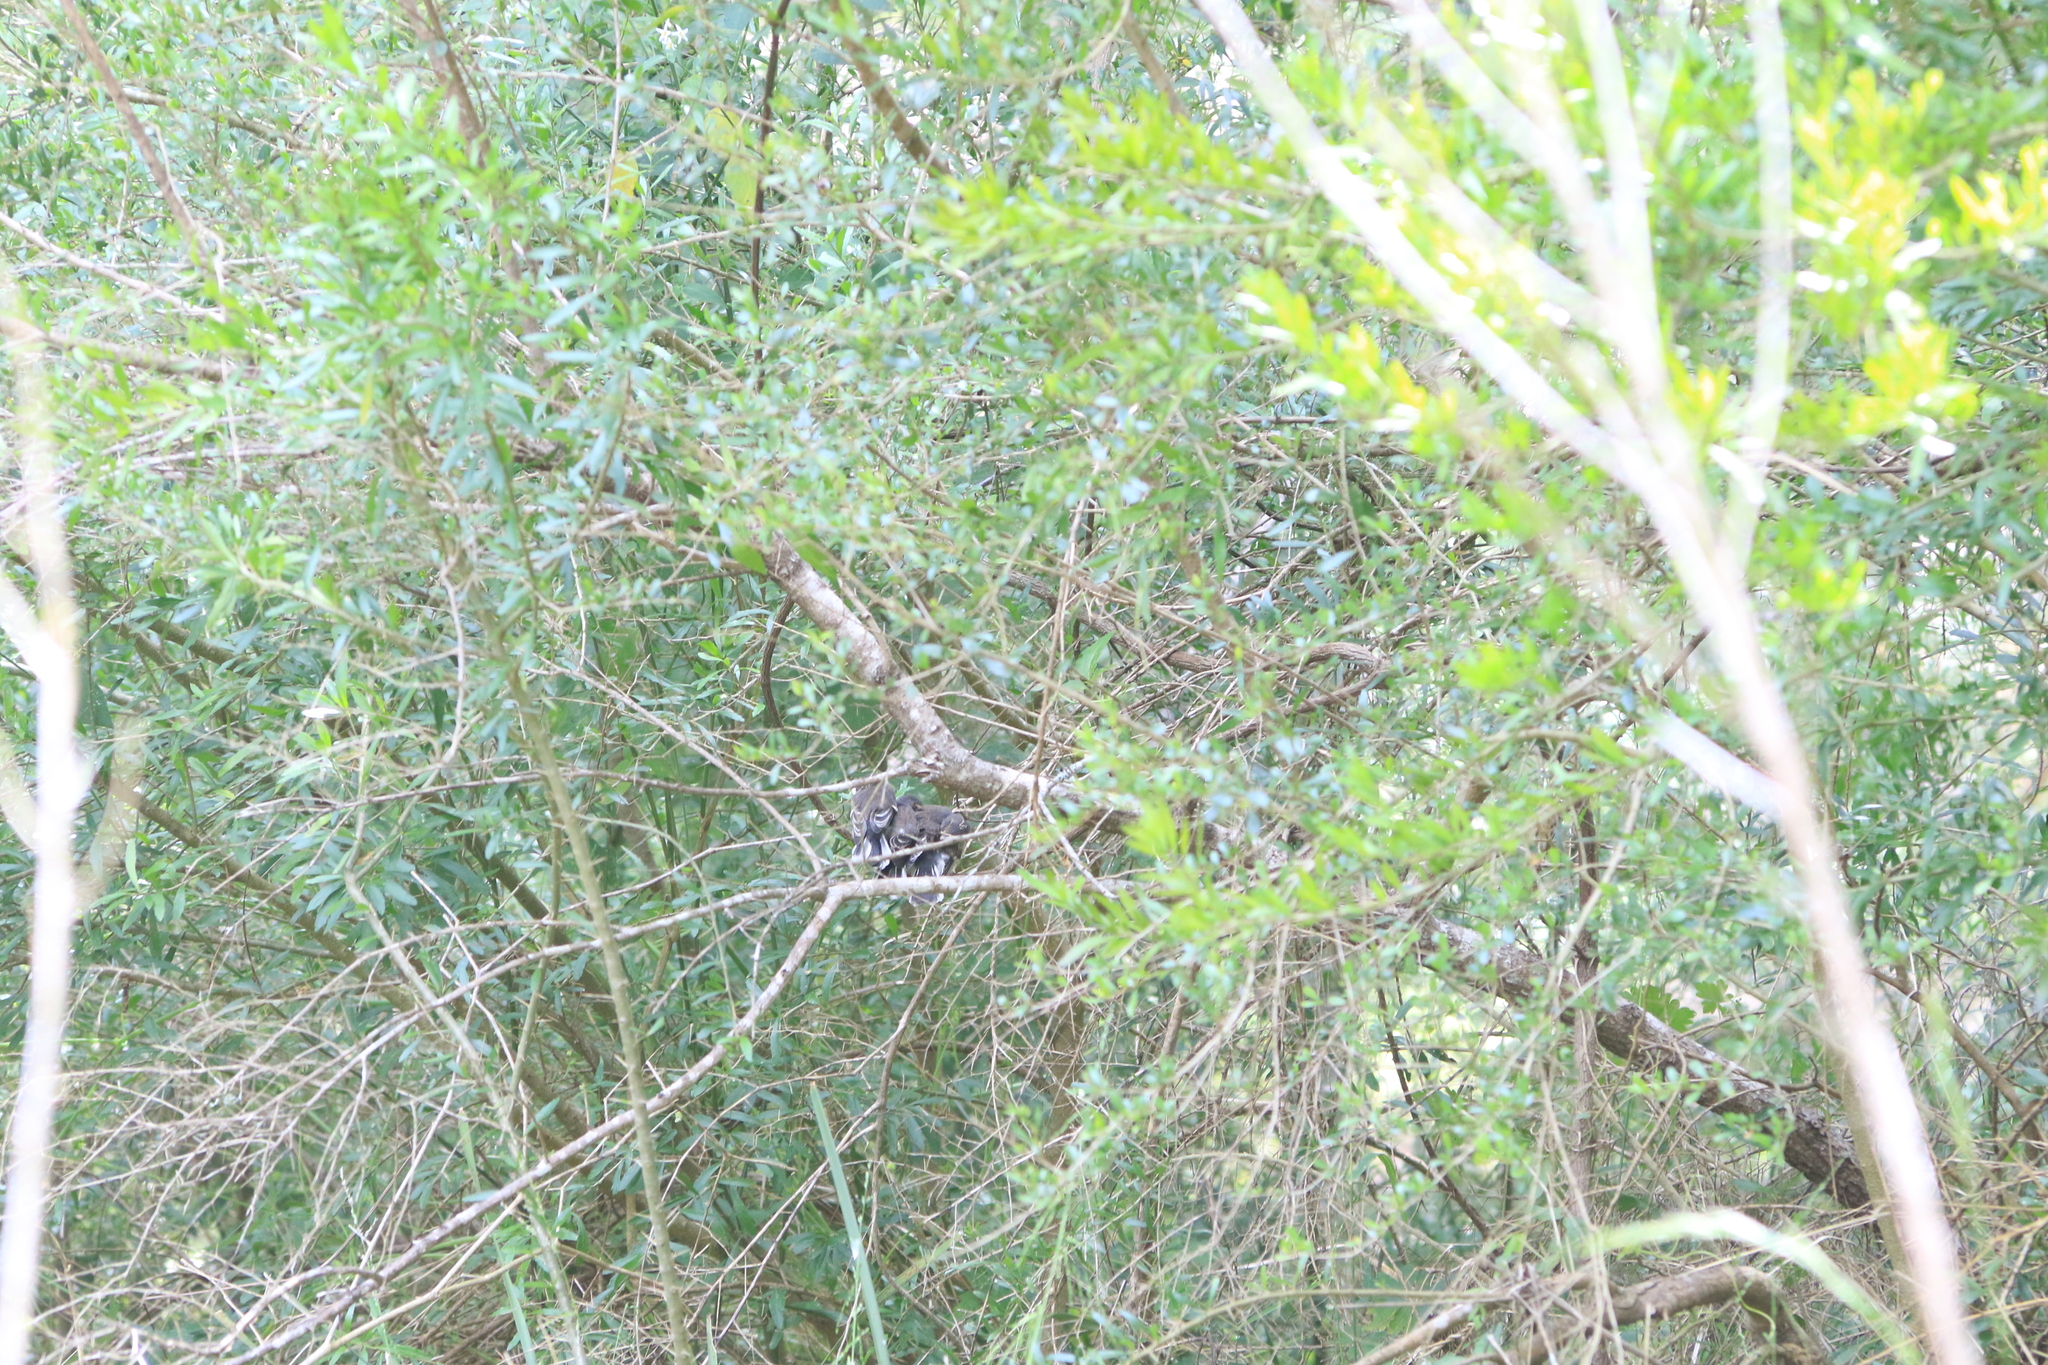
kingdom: Animalia
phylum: Chordata
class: Aves
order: Passeriformes
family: Rhipiduridae
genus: Rhipidura
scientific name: Rhipidura albiscapa
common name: Grey fantail
